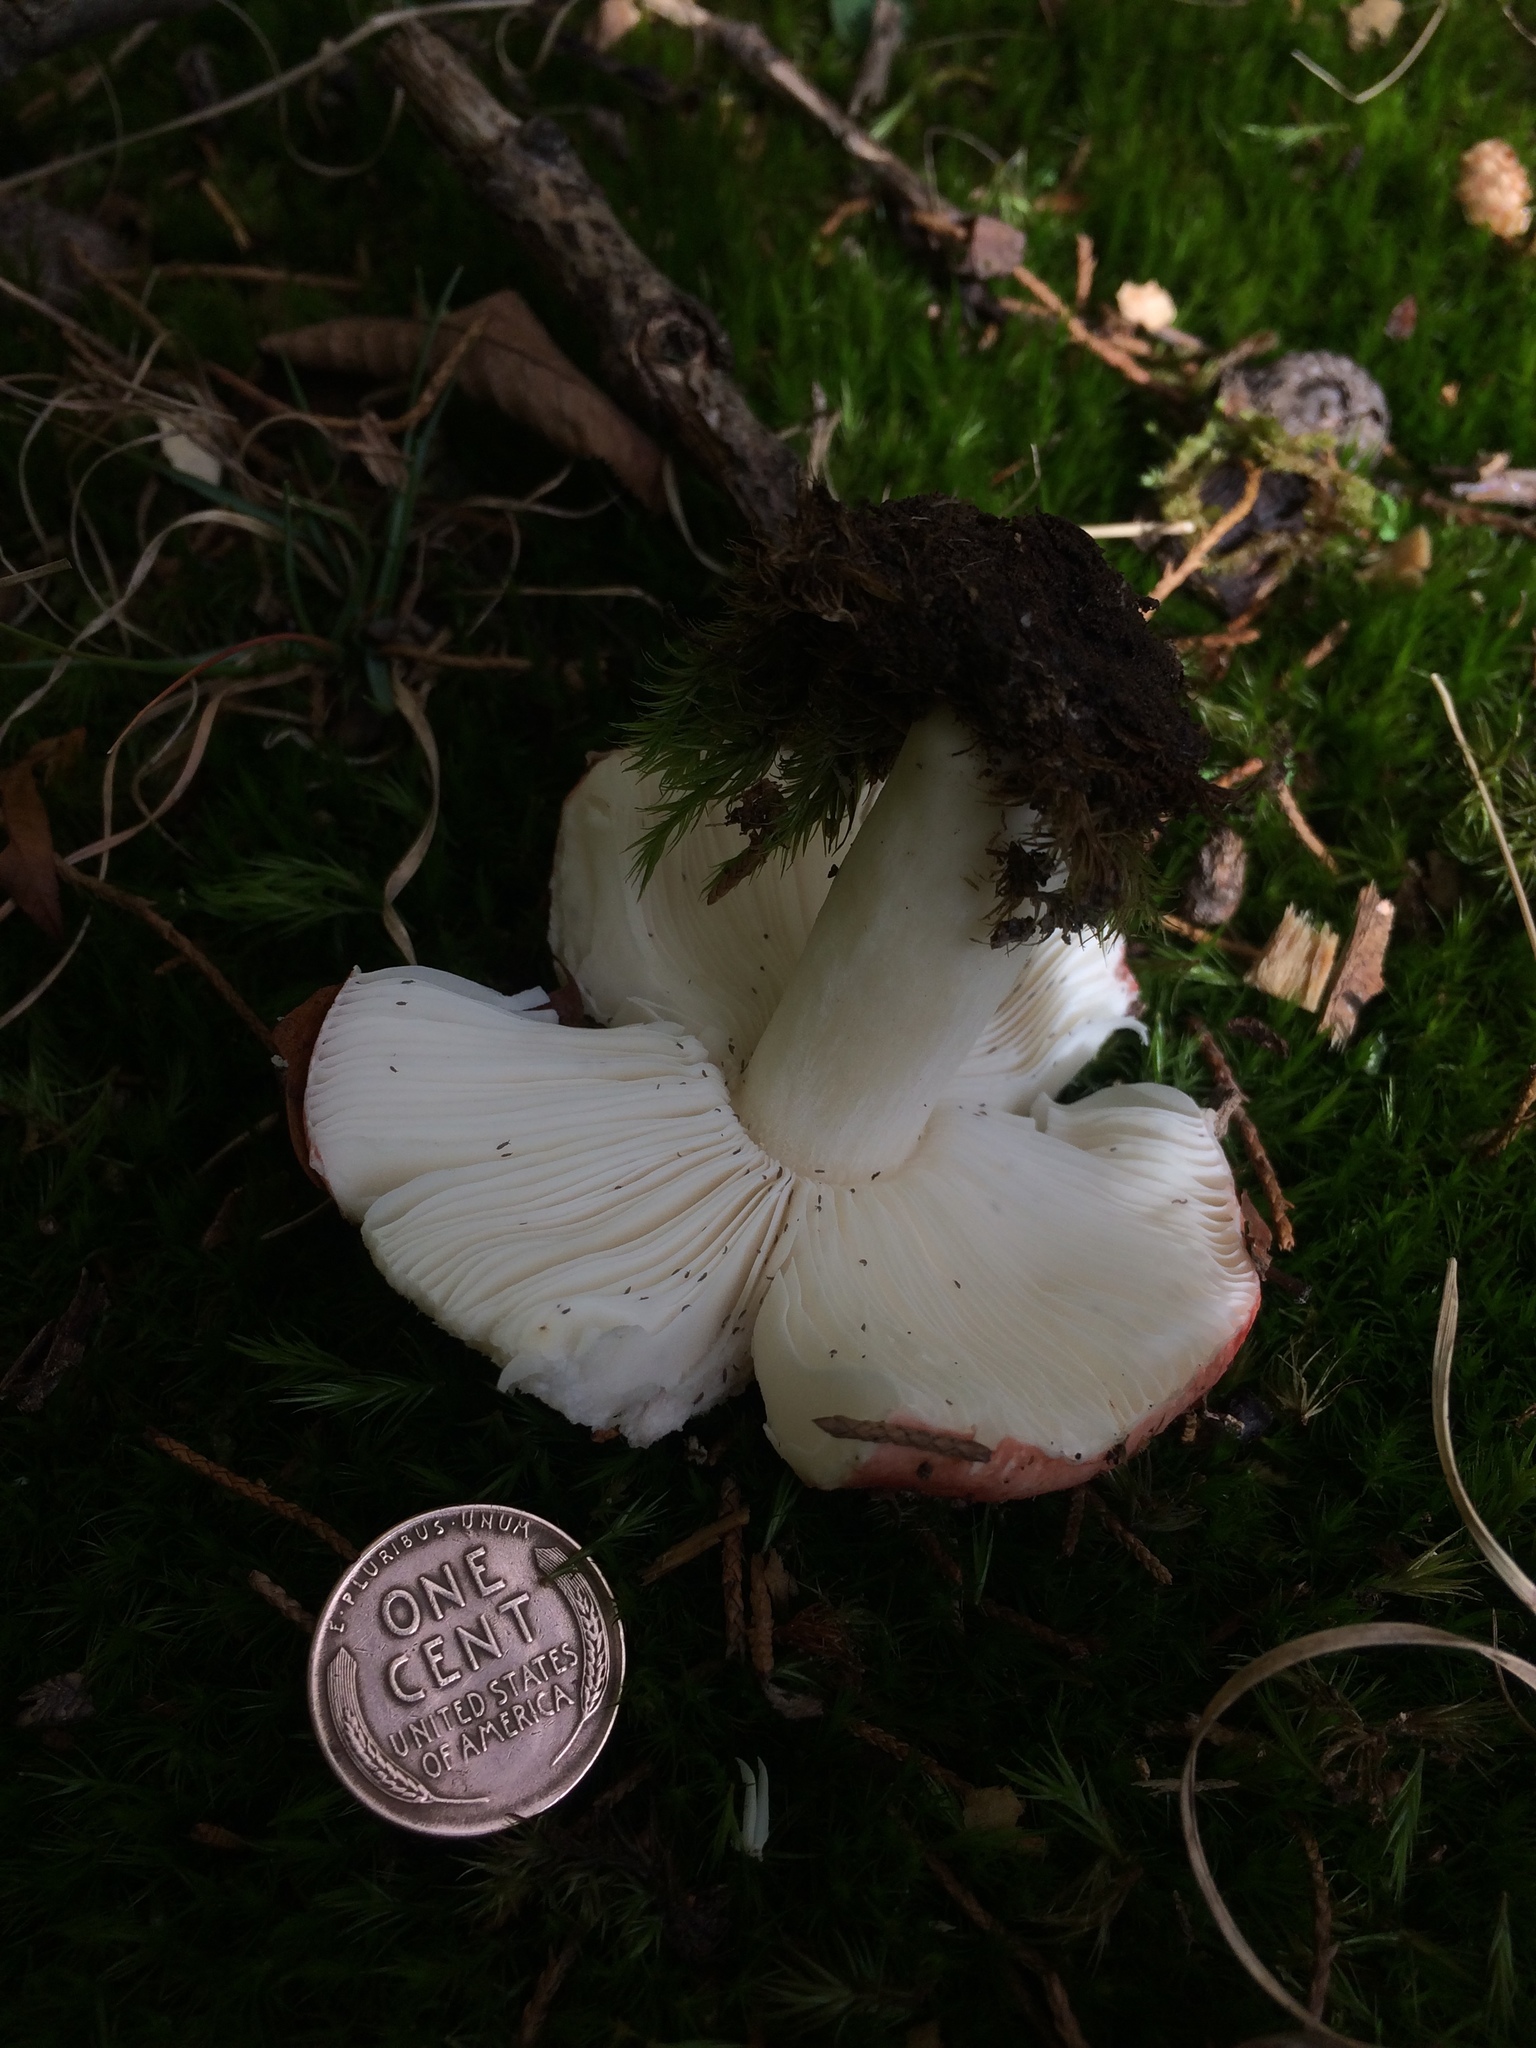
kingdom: Fungi
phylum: Basidiomycota
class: Agaricomycetes
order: Russulales
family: Russulaceae
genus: Russula
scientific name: Russula flavisiccans
